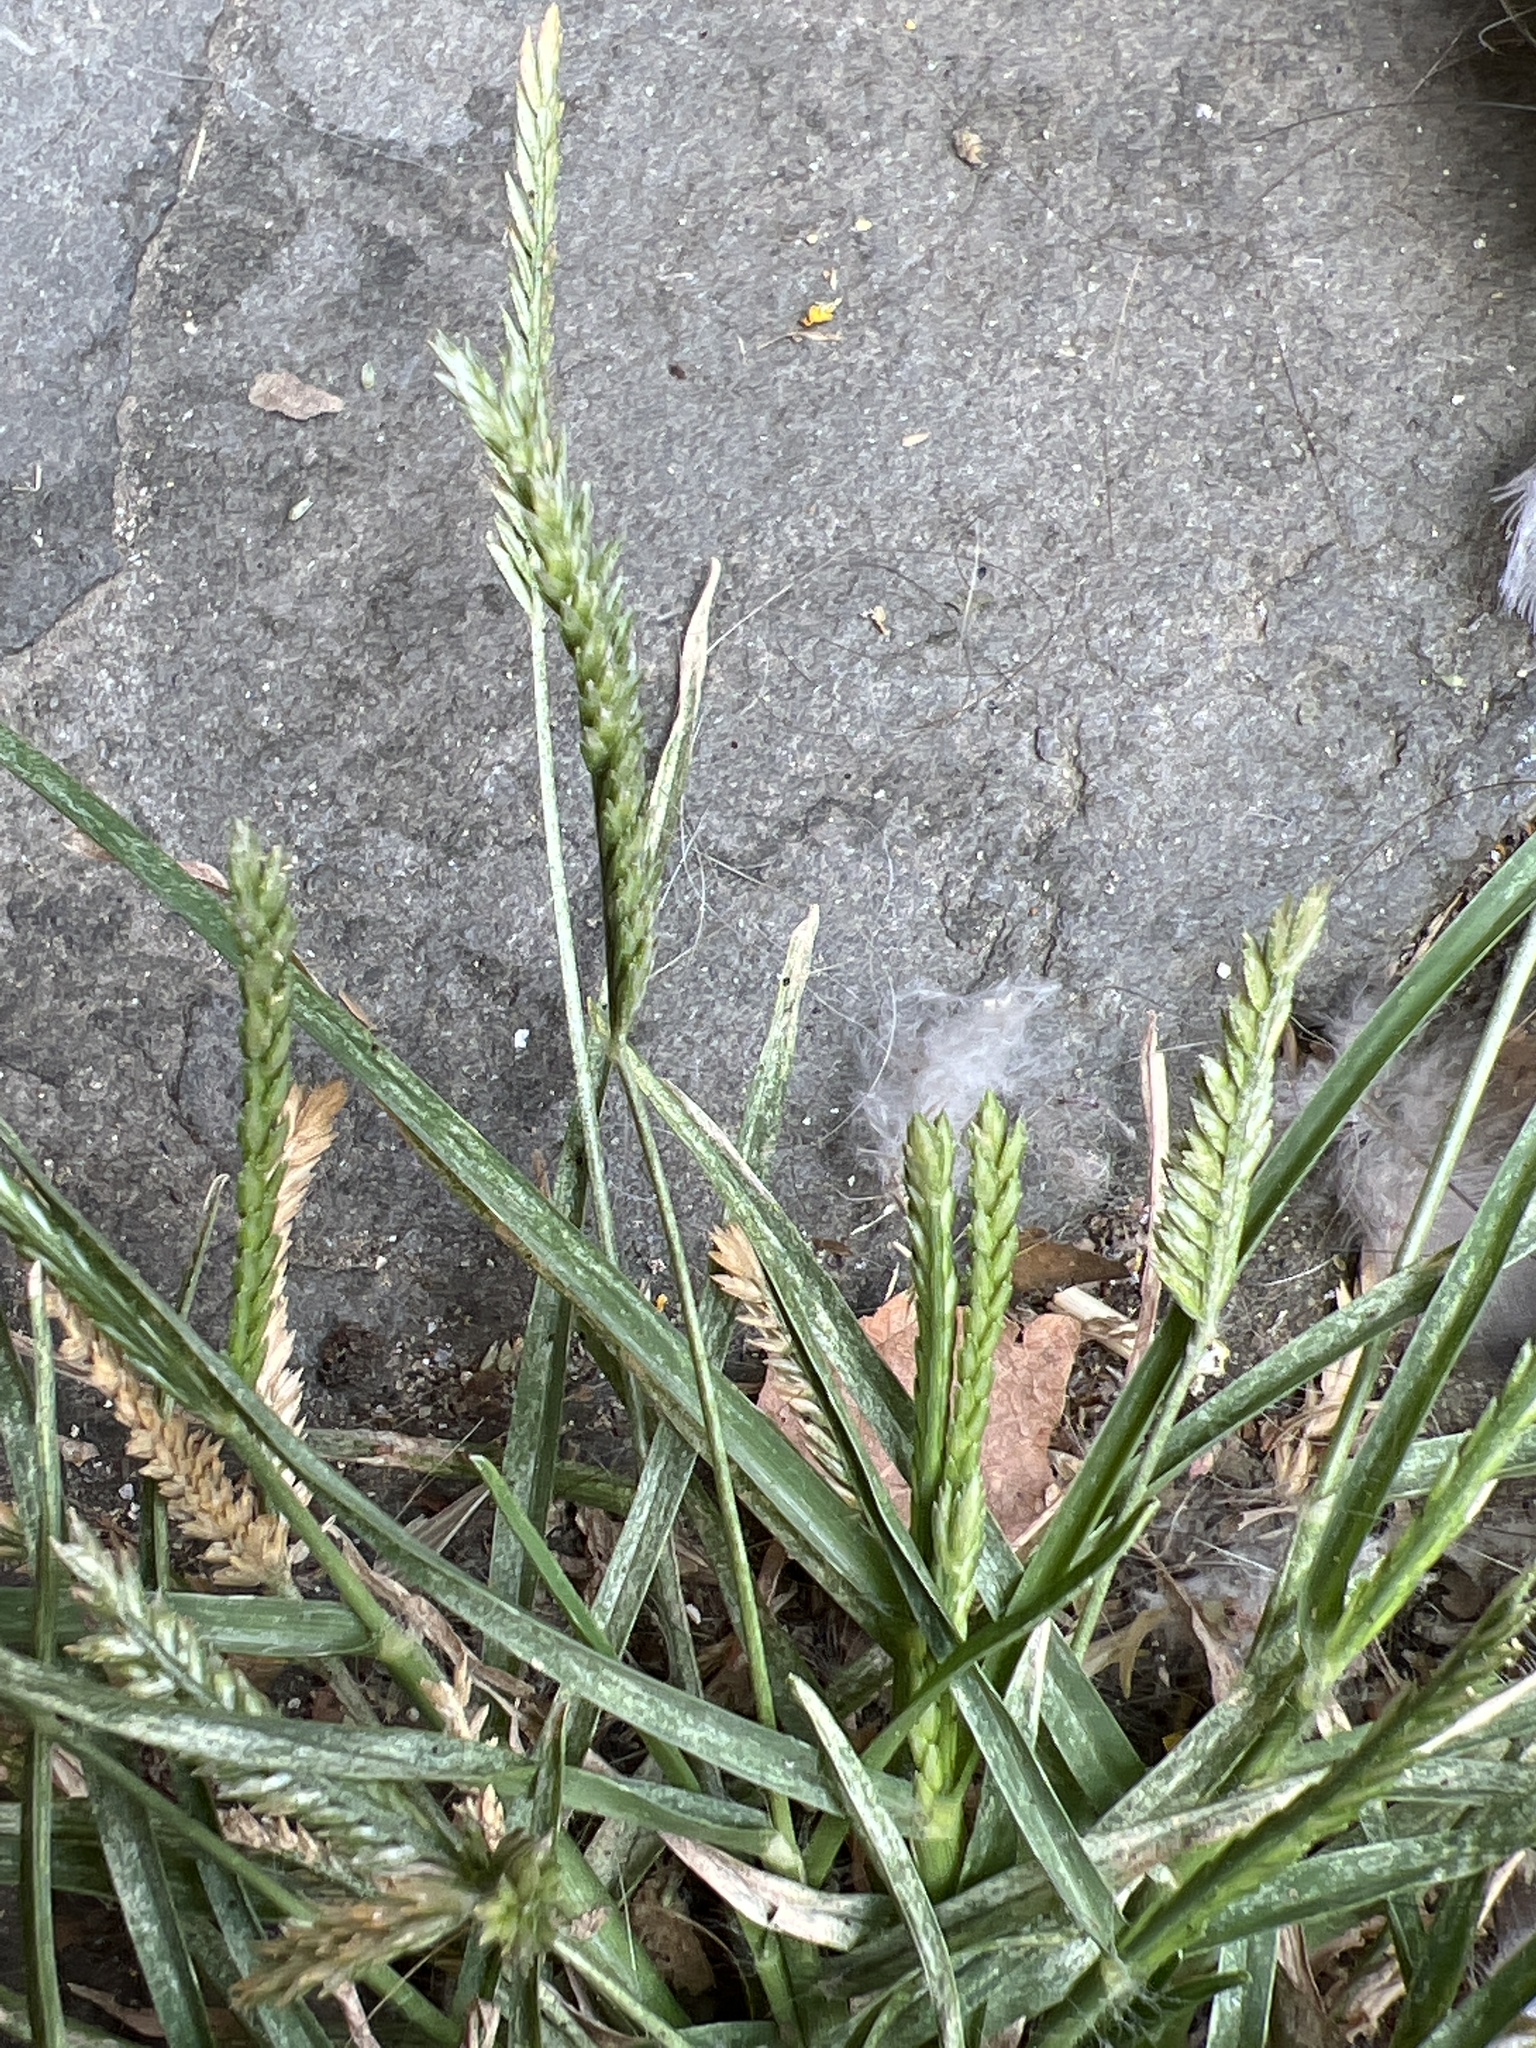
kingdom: Plantae
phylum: Tracheophyta
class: Liliopsida
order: Poales
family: Poaceae
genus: Eleusine
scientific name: Eleusine indica
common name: Yard-grass
